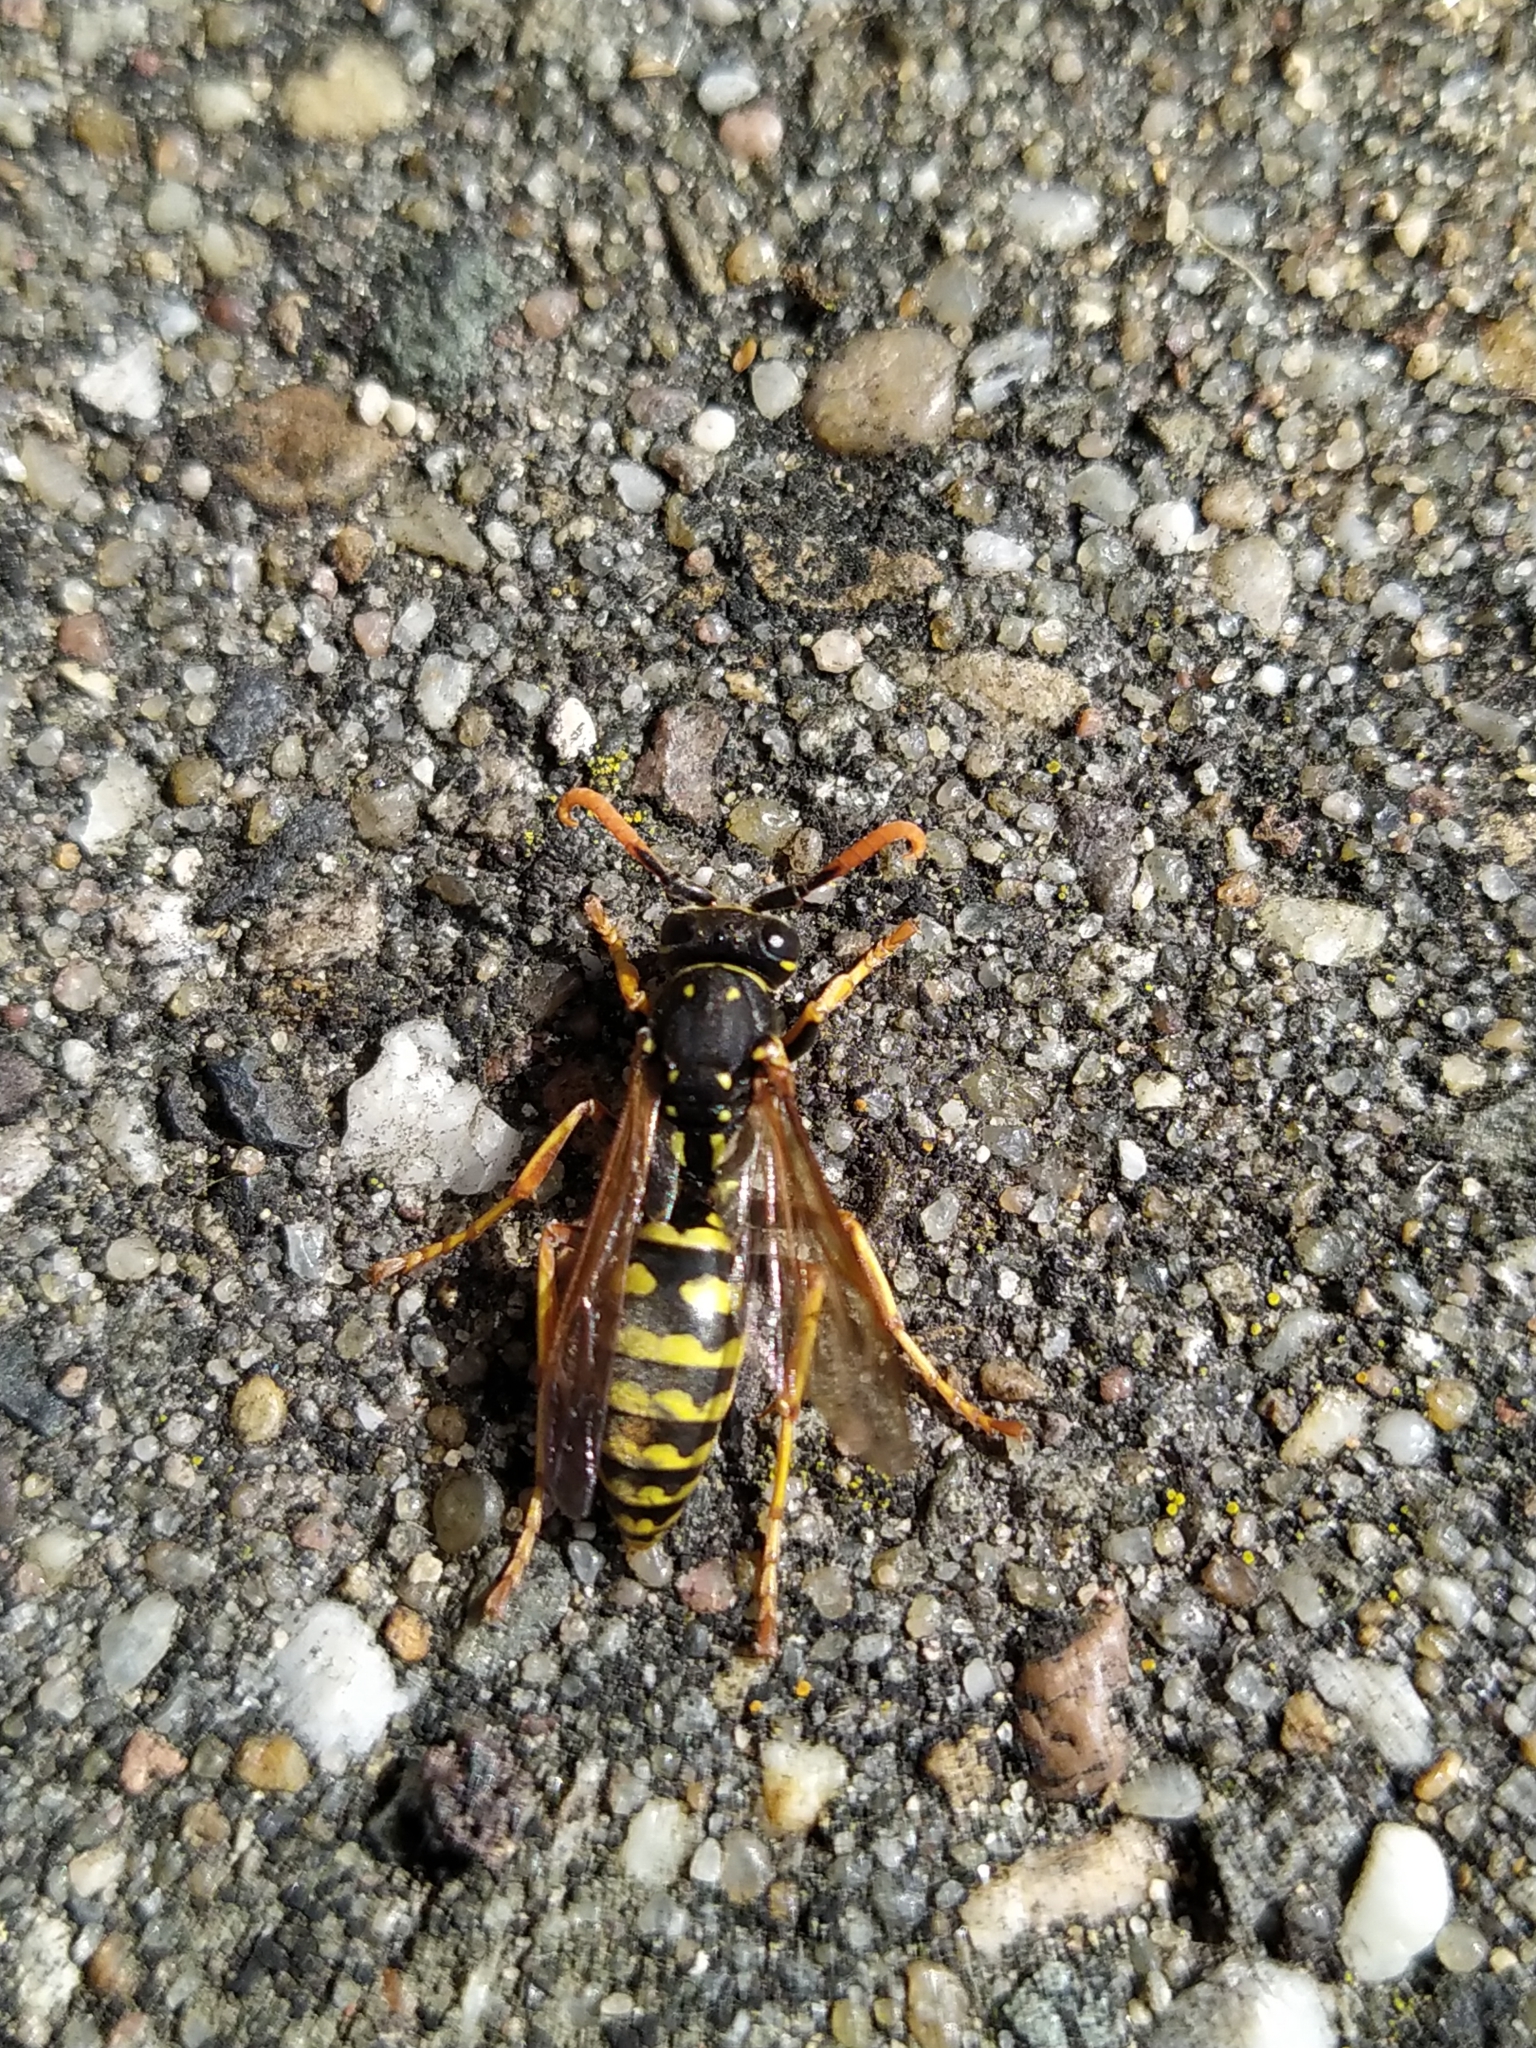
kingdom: Animalia
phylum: Arthropoda
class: Insecta
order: Hymenoptera
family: Eumenidae
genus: Polistes
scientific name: Polistes dominula
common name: Paper wasp
